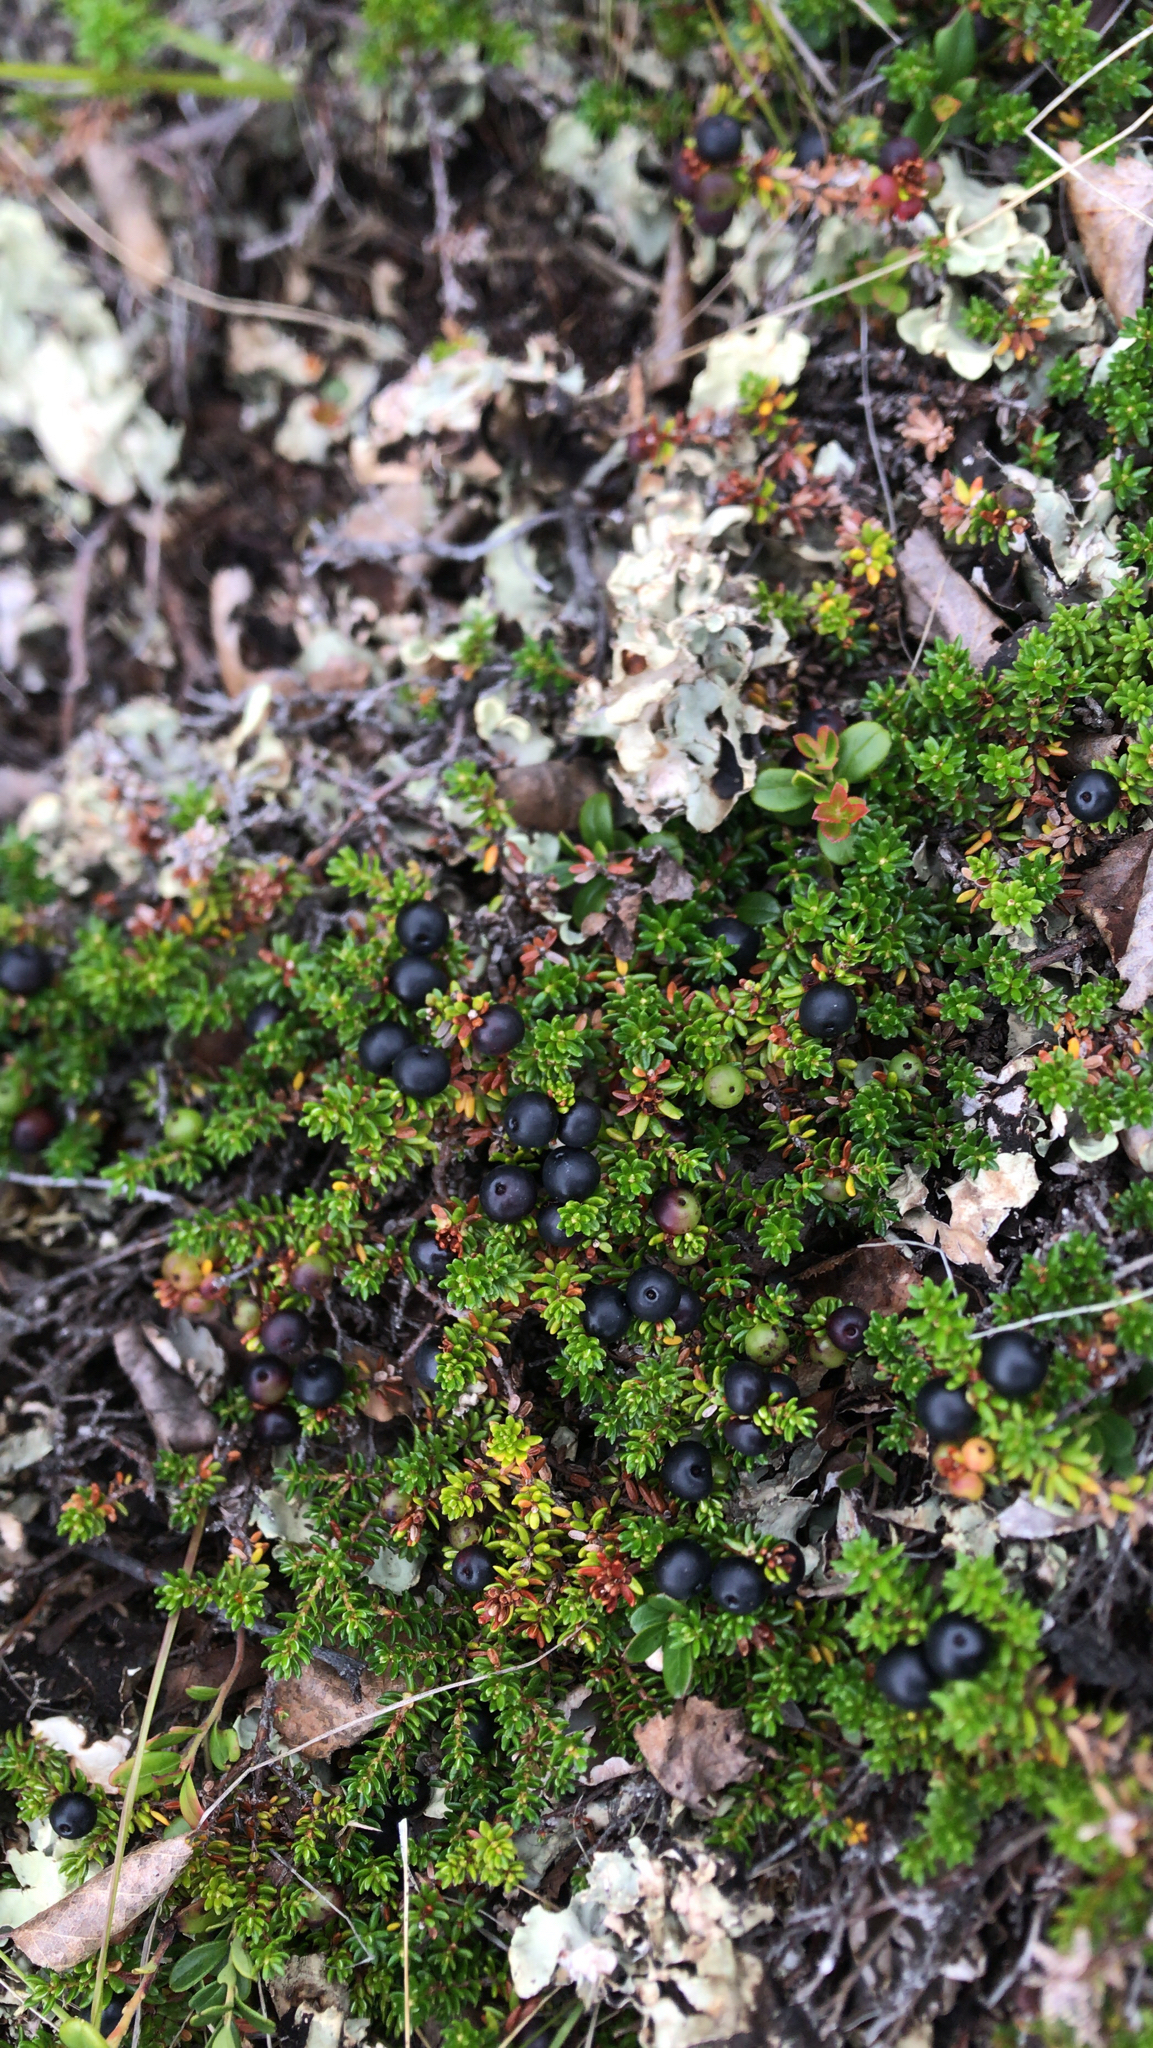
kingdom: Plantae
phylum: Tracheophyta
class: Magnoliopsida
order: Ericales
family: Ericaceae
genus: Empetrum
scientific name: Empetrum nigrum
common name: Black crowberry
